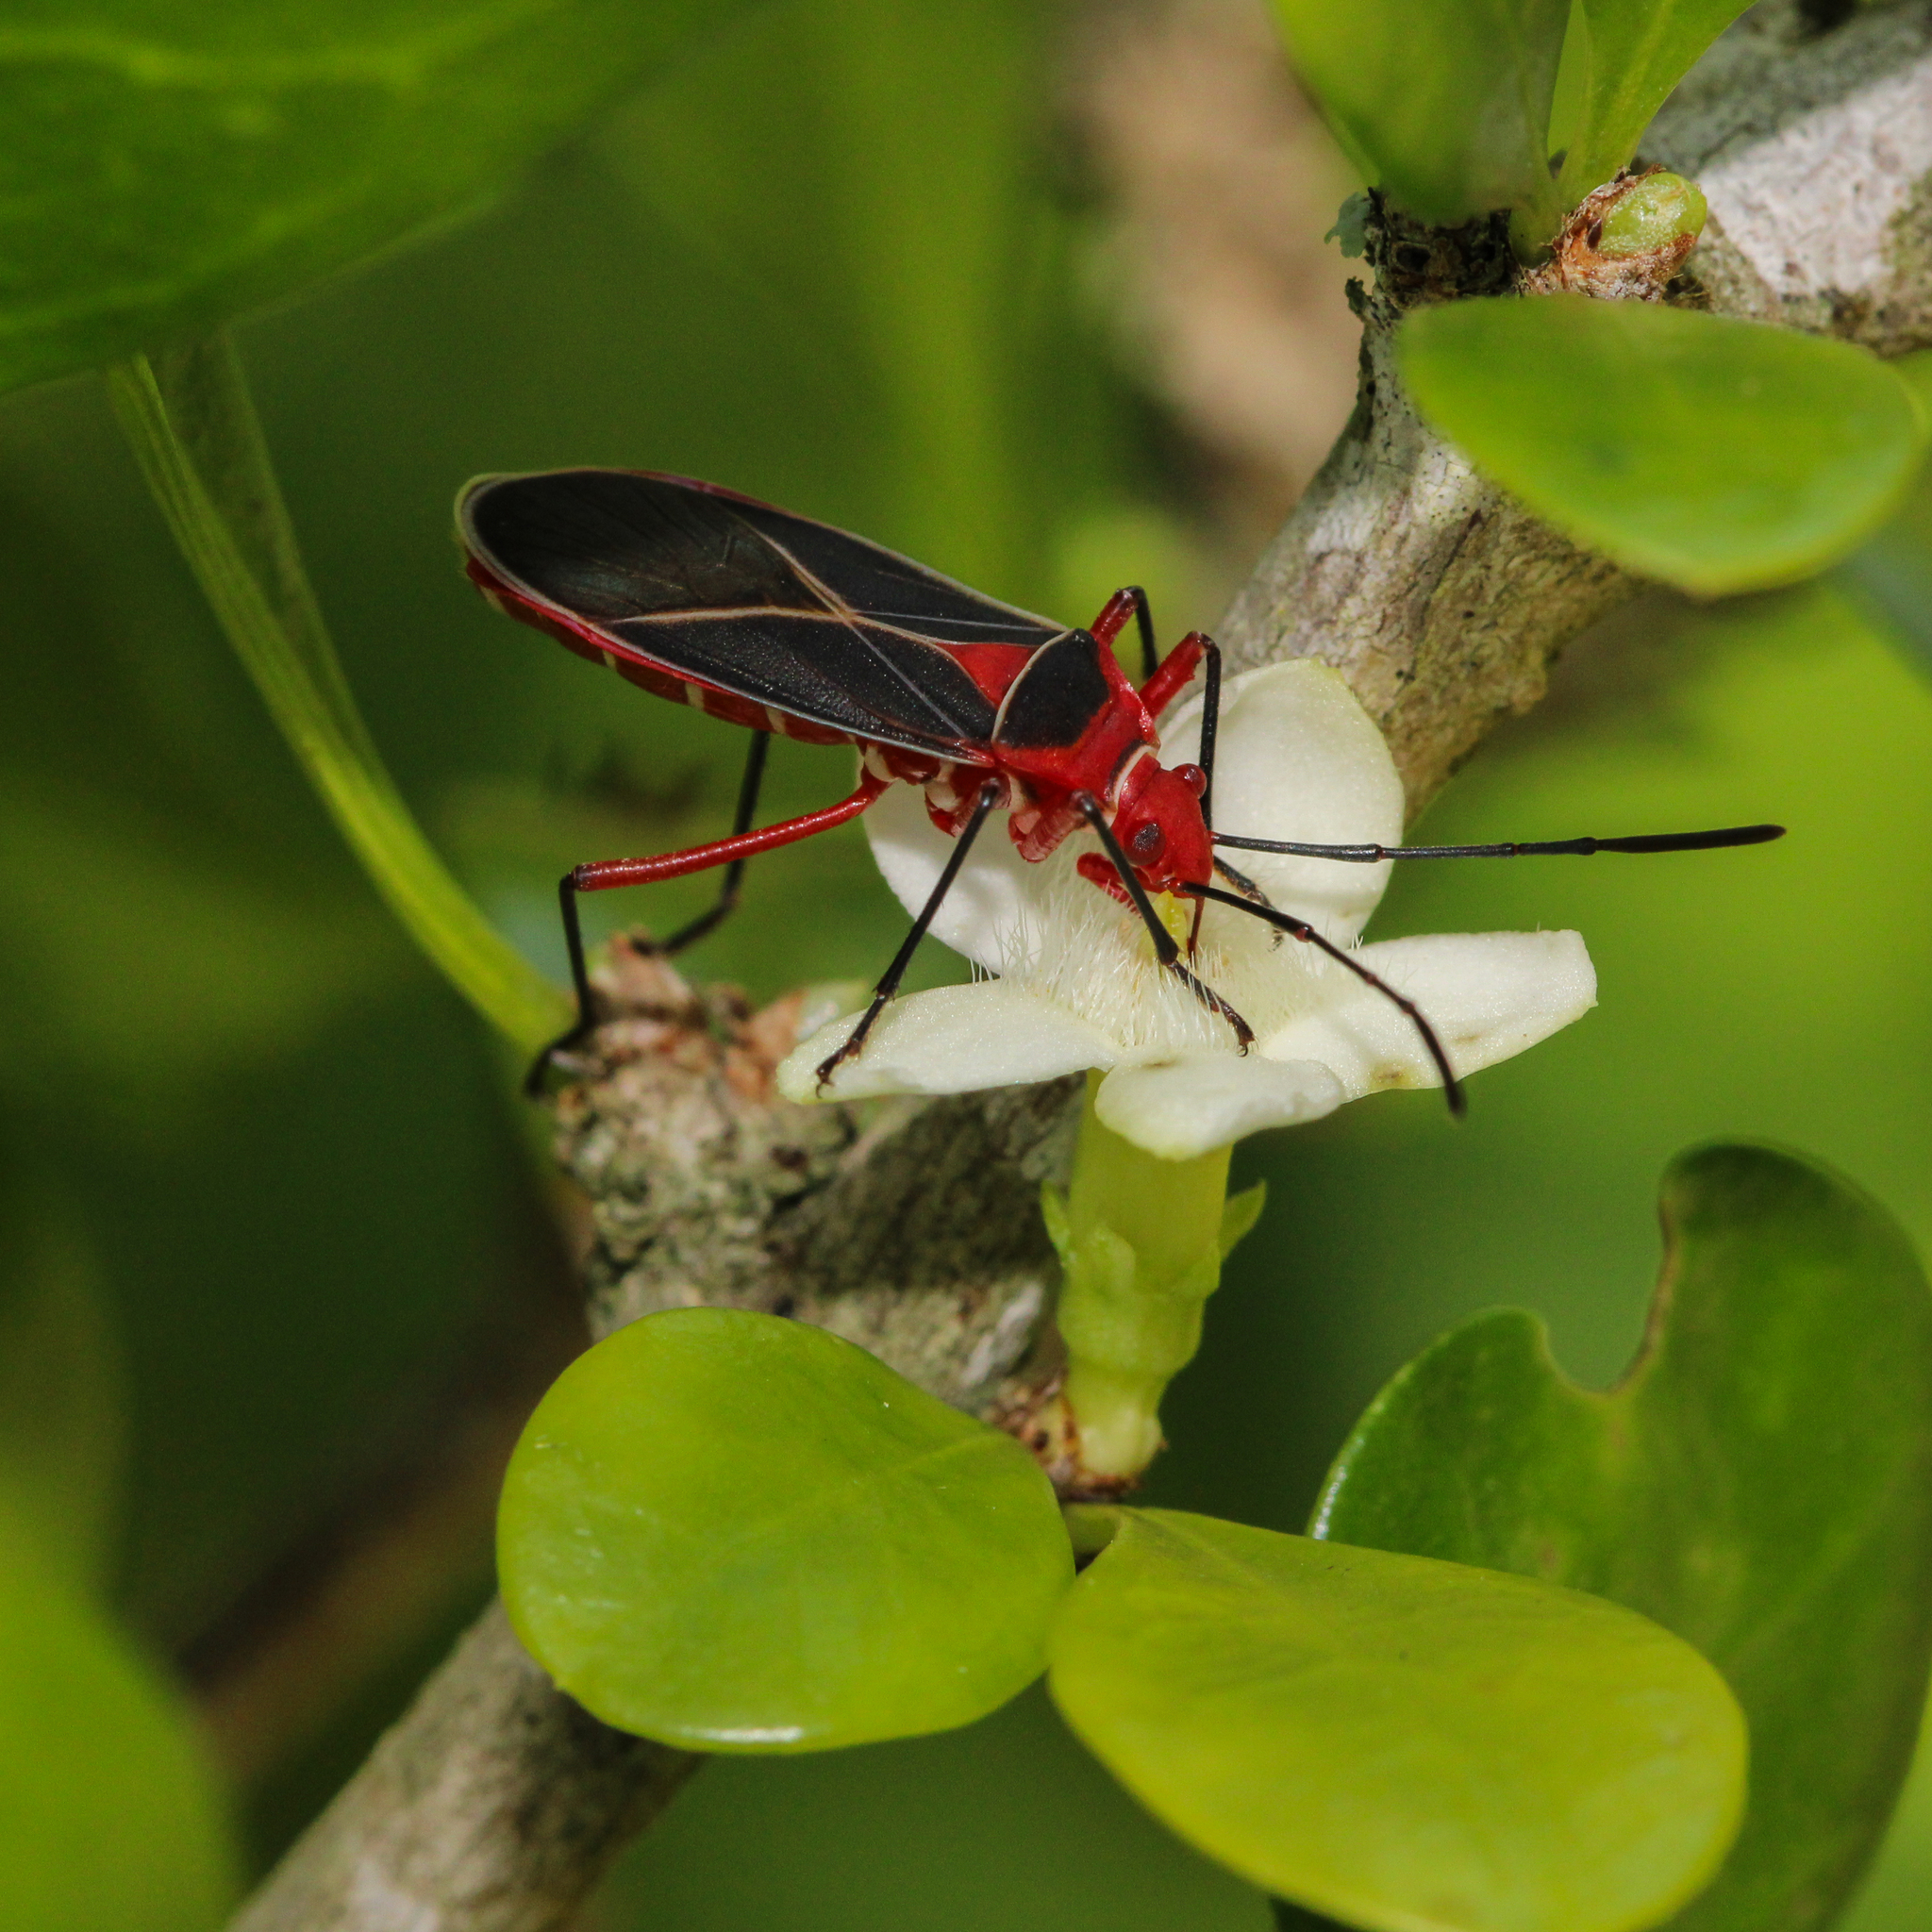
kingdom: Animalia
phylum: Arthropoda
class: Insecta
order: Hemiptera
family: Pyrrhocoridae
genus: Dysdercus
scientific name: Dysdercus suturellus
